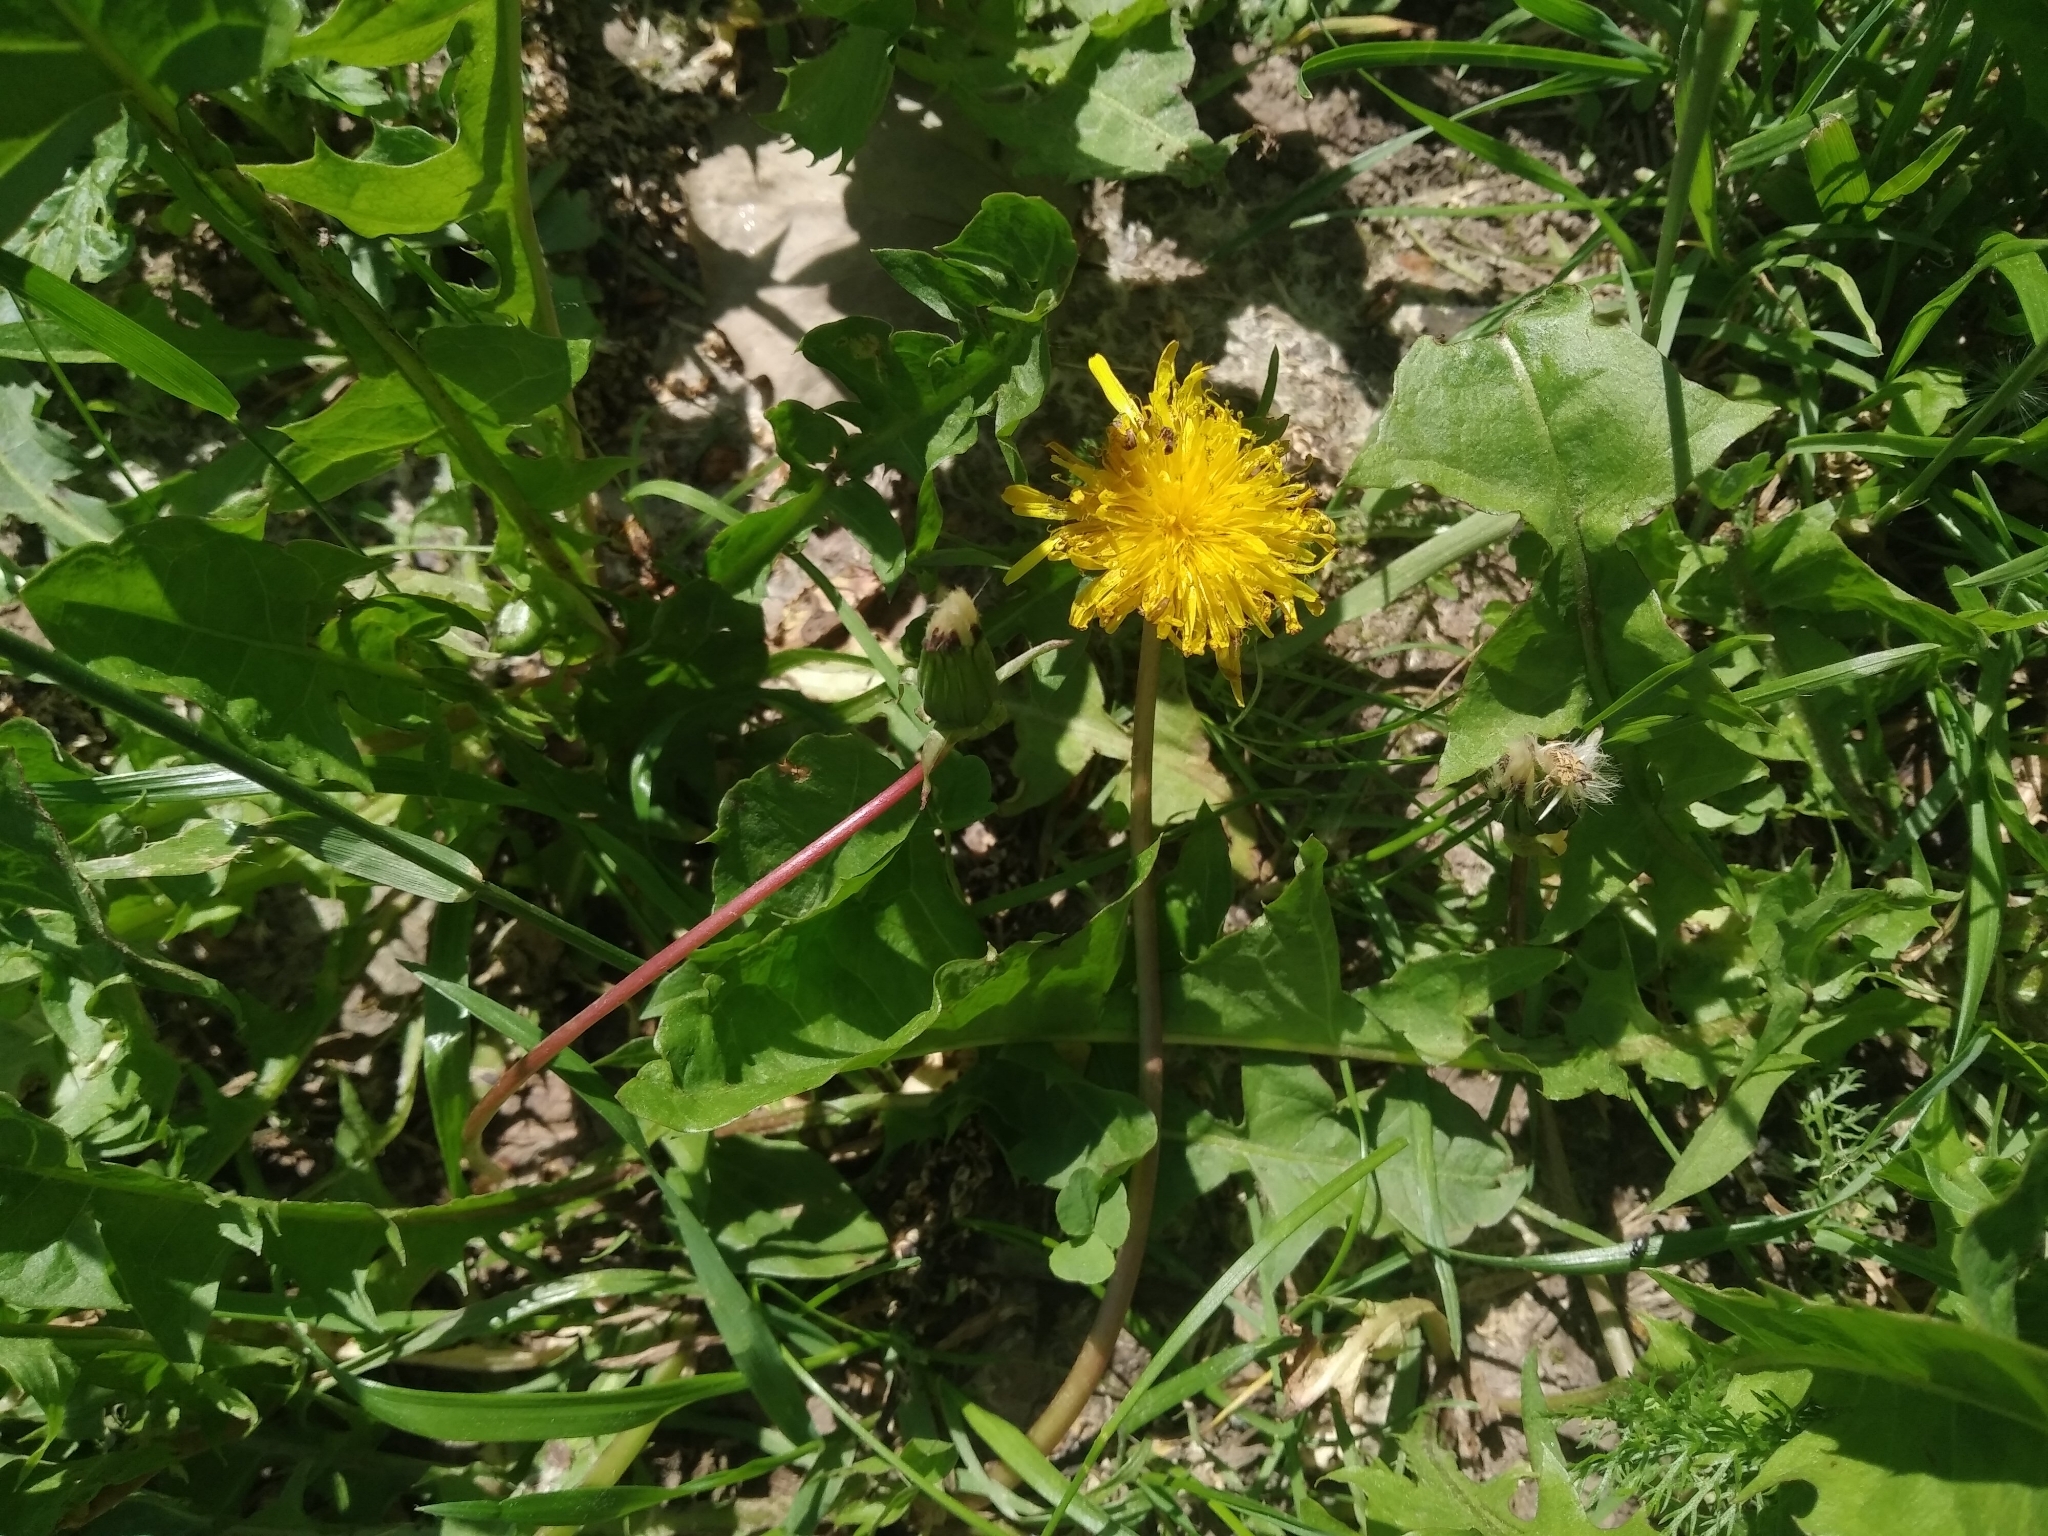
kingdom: Plantae
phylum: Tracheophyta
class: Magnoliopsida
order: Asterales
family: Asteraceae
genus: Taraxacum
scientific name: Taraxacum officinale
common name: Common dandelion
